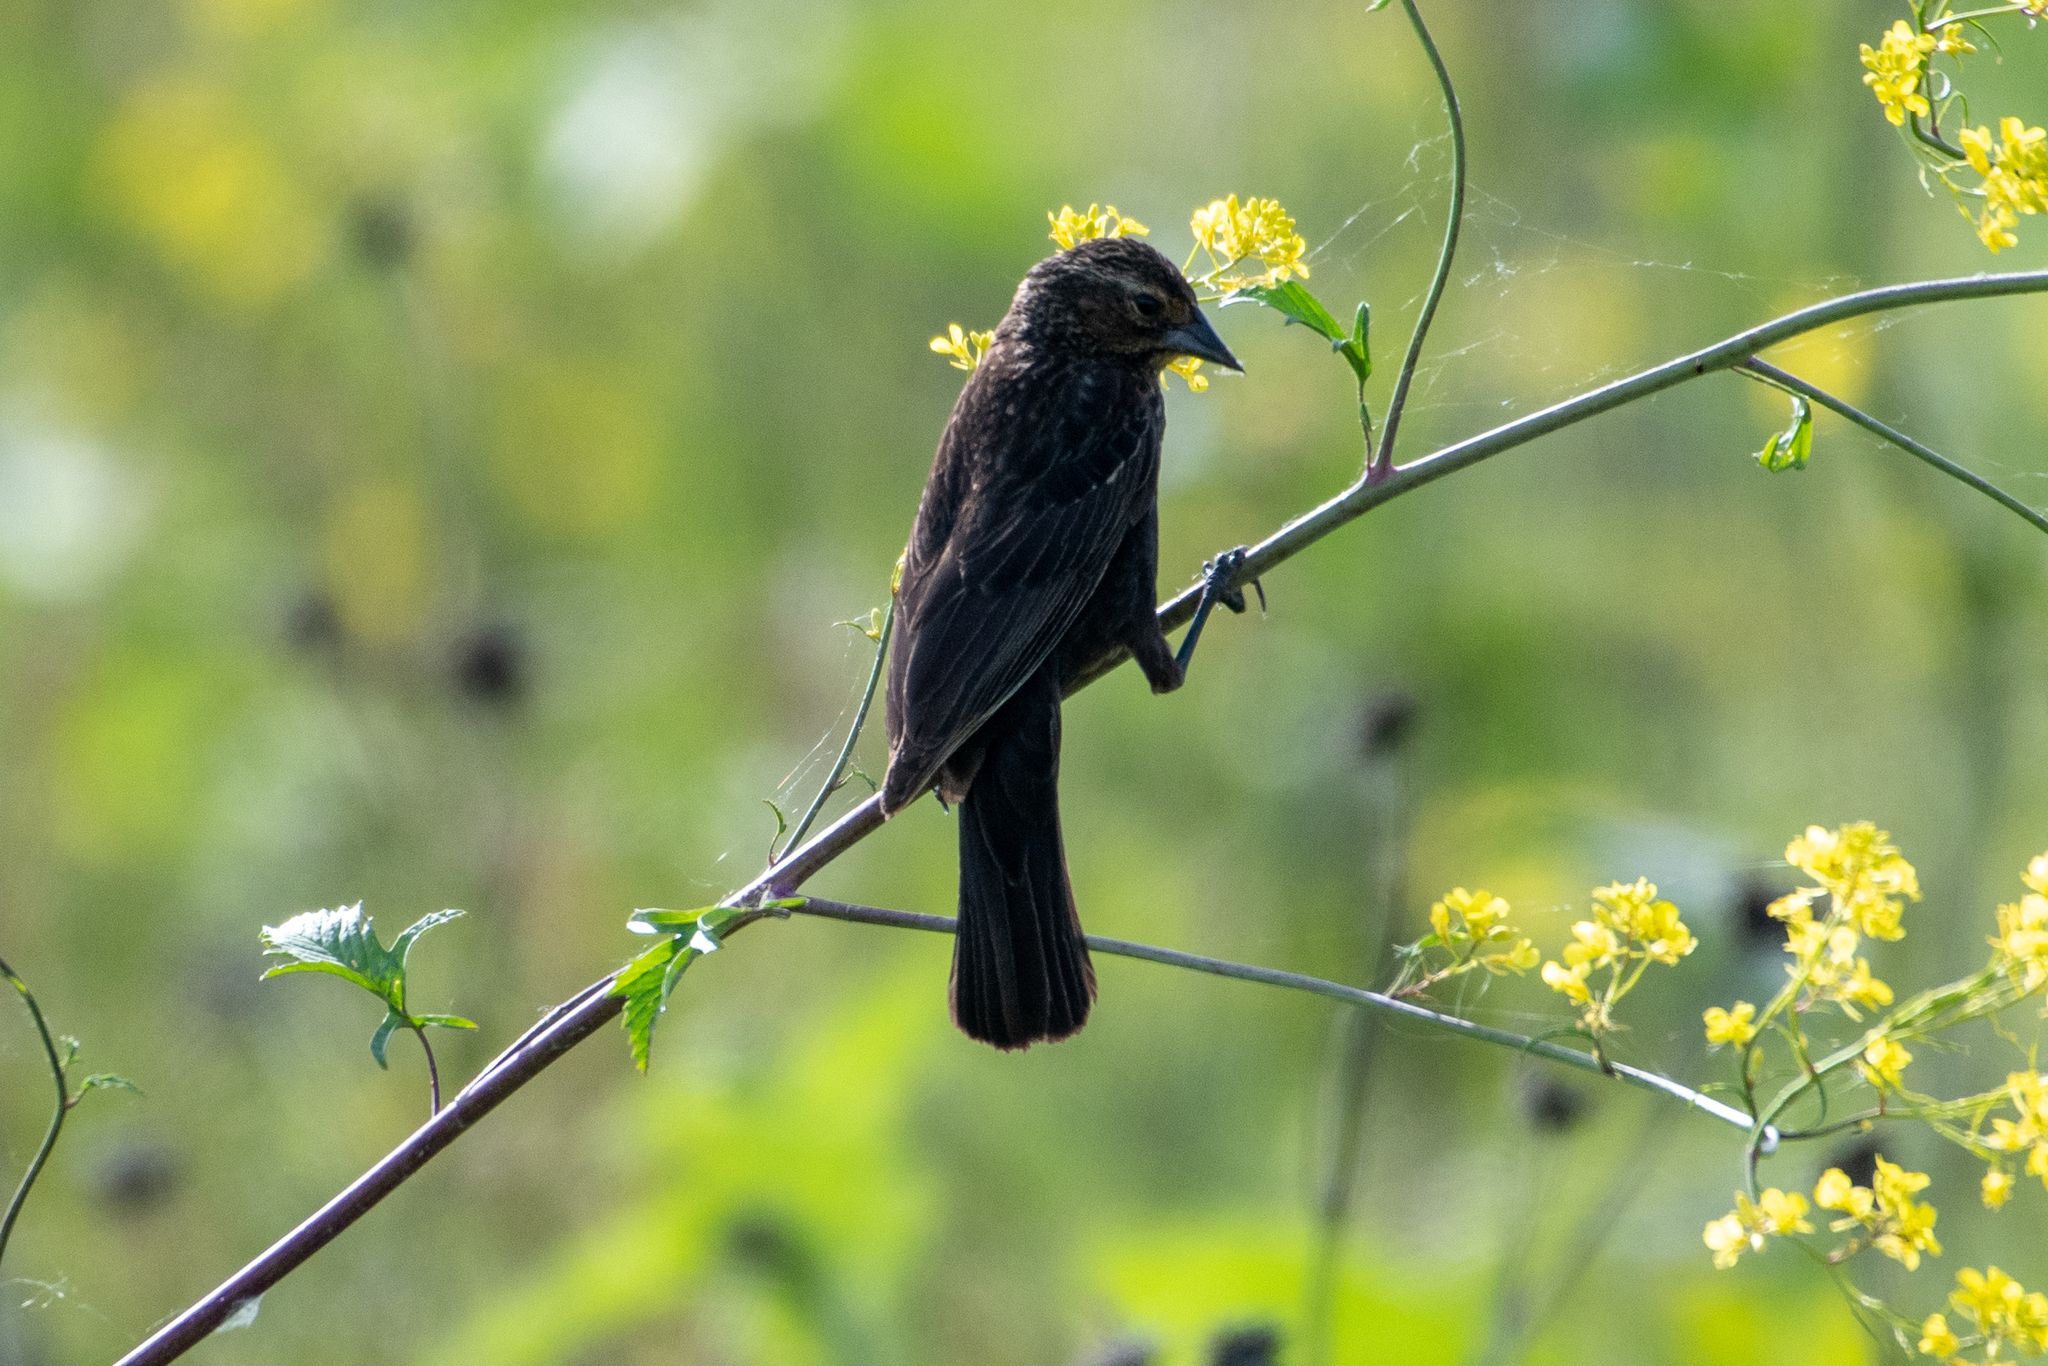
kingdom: Animalia
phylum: Chordata
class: Aves
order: Passeriformes
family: Icteridae
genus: Agelaius
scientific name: Agelaius phoeniceus
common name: Red-winged blackbird
